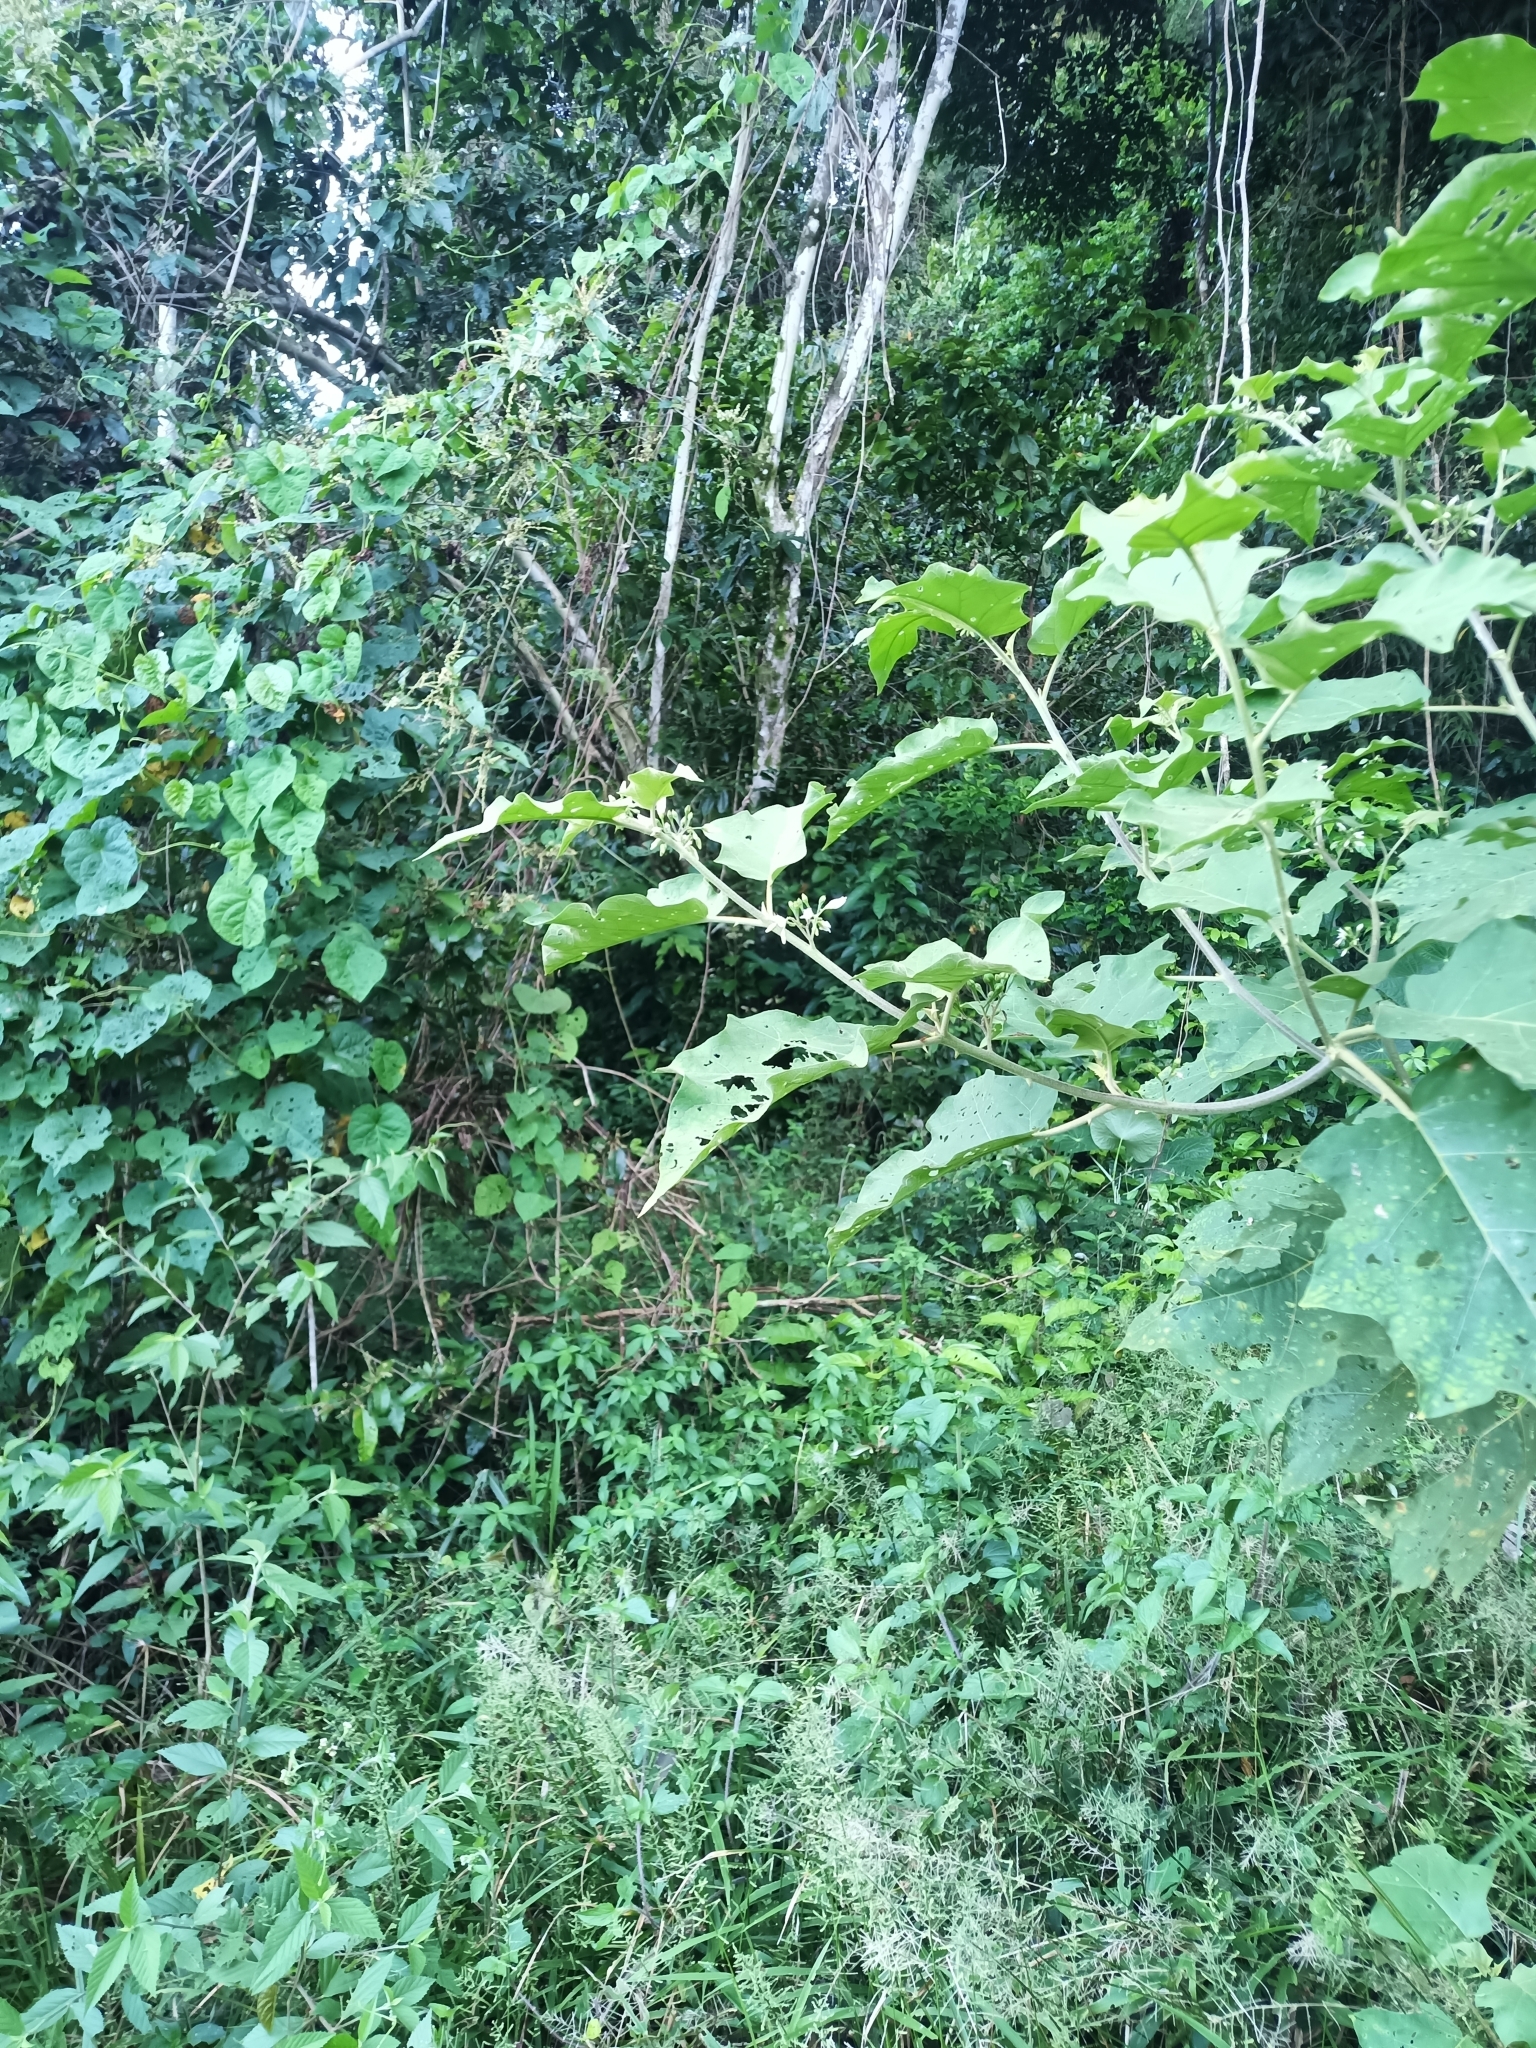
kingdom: Plantae
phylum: Tracheophyta
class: Magnoliopsida
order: Solanales
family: Solanaceae
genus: Solanum
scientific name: Solanum torvum
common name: Turkey berry
